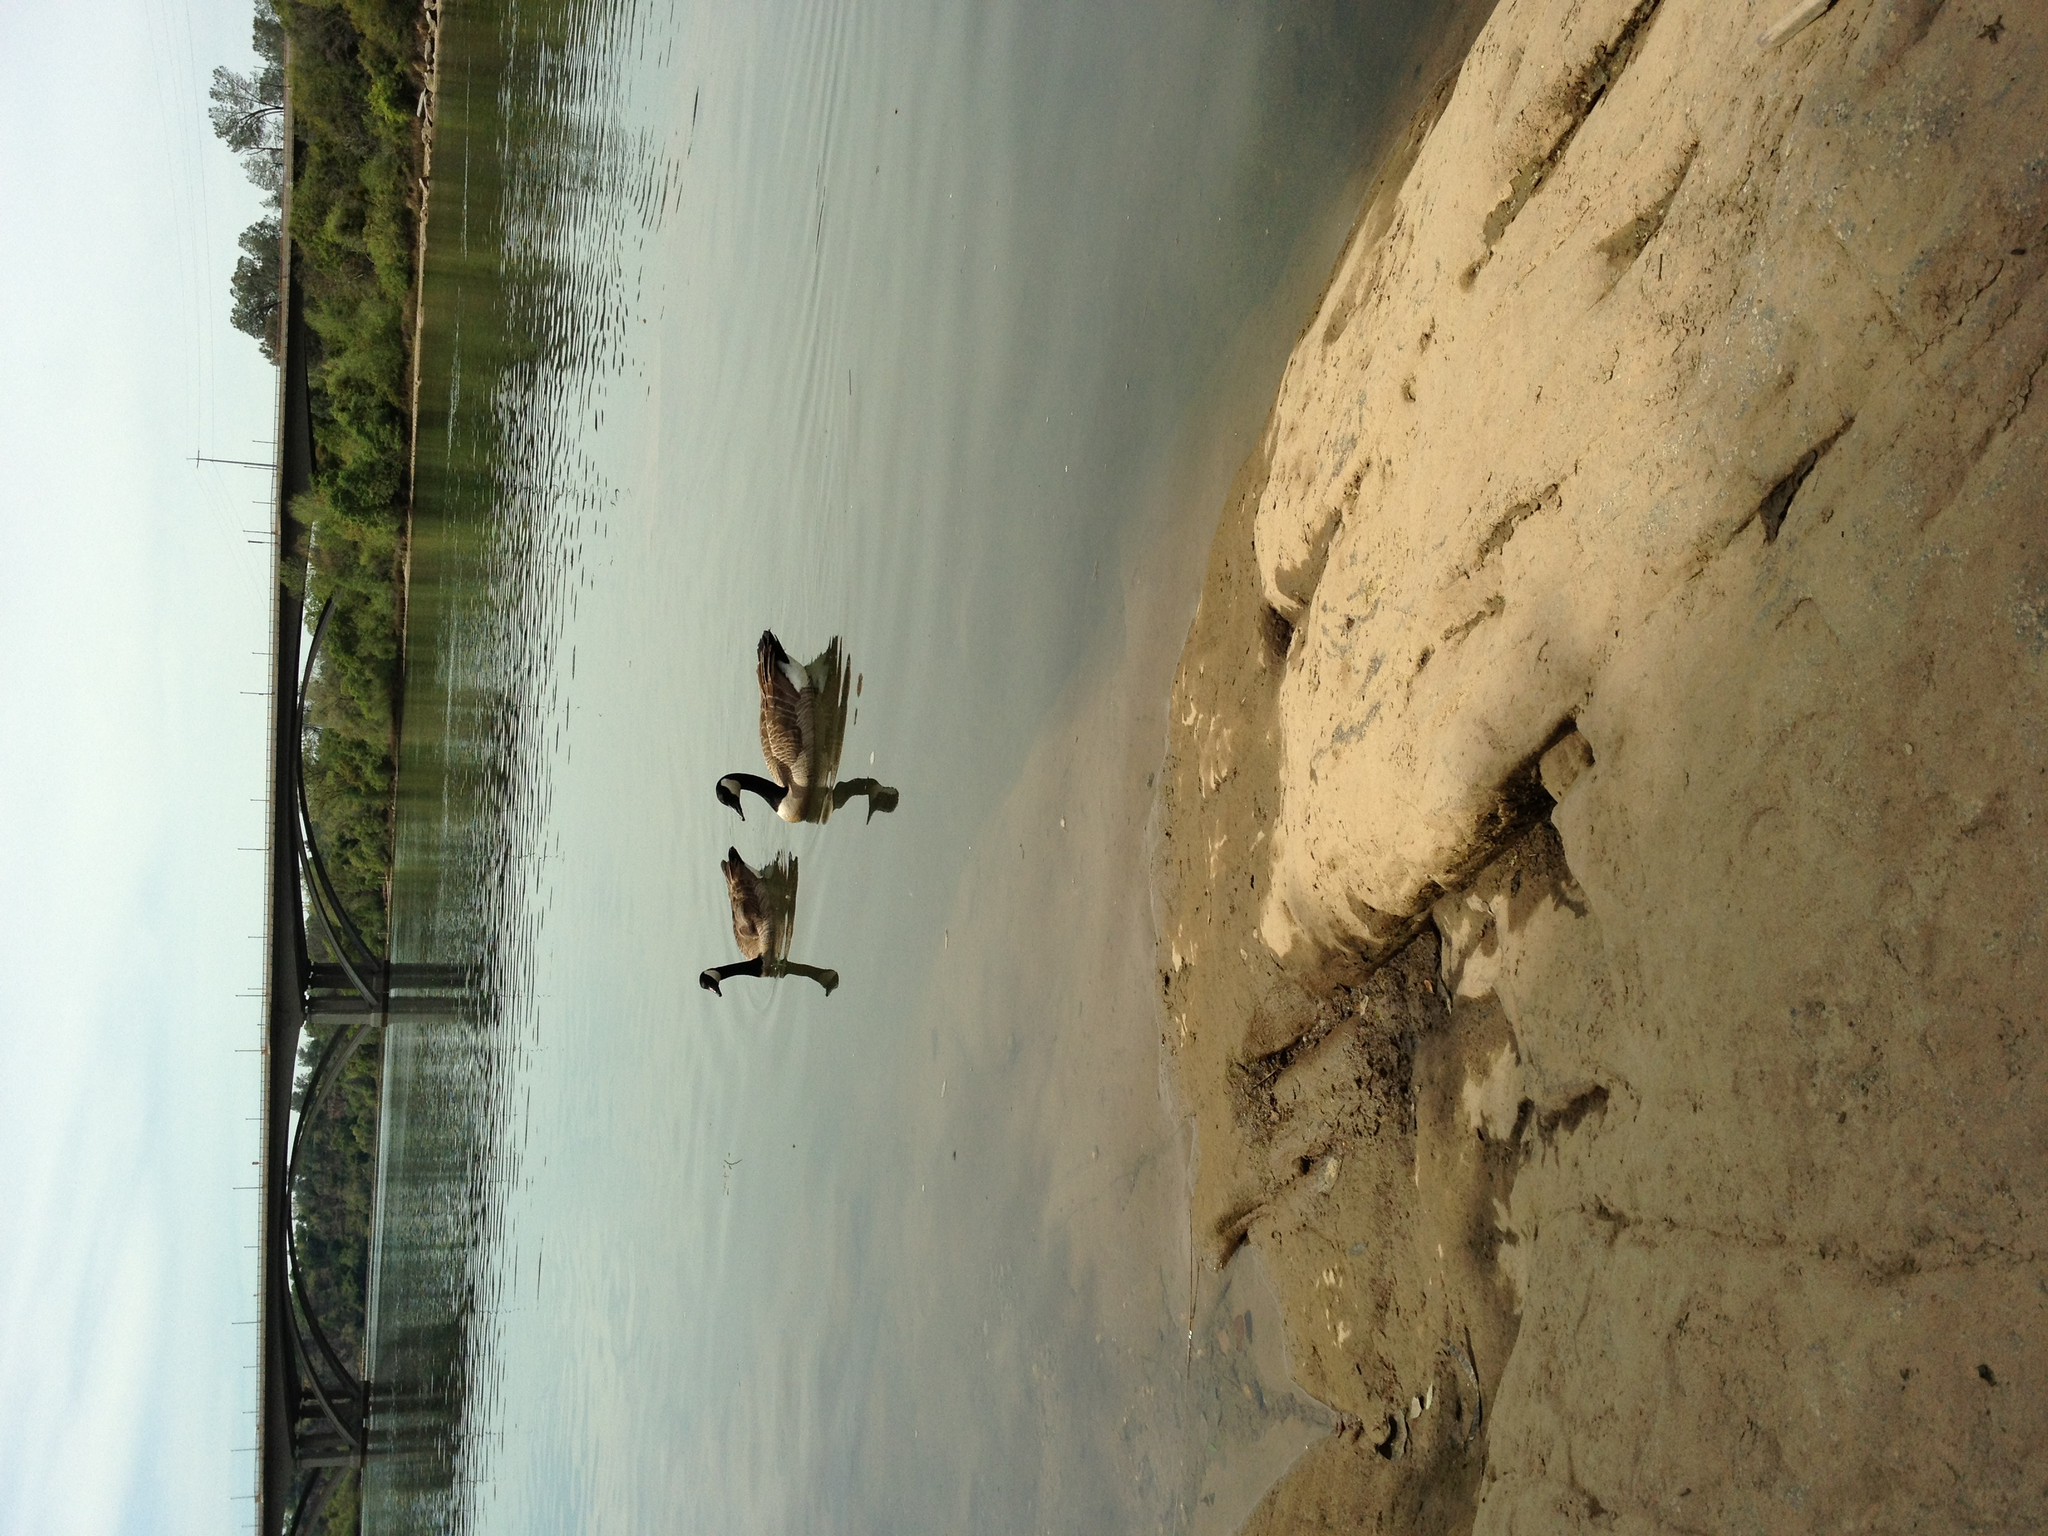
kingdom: Animalia
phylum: Chordata
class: Aves
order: Anseriformes
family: Anatidae
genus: Branta
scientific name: Branta canadensis
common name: Canada goose
